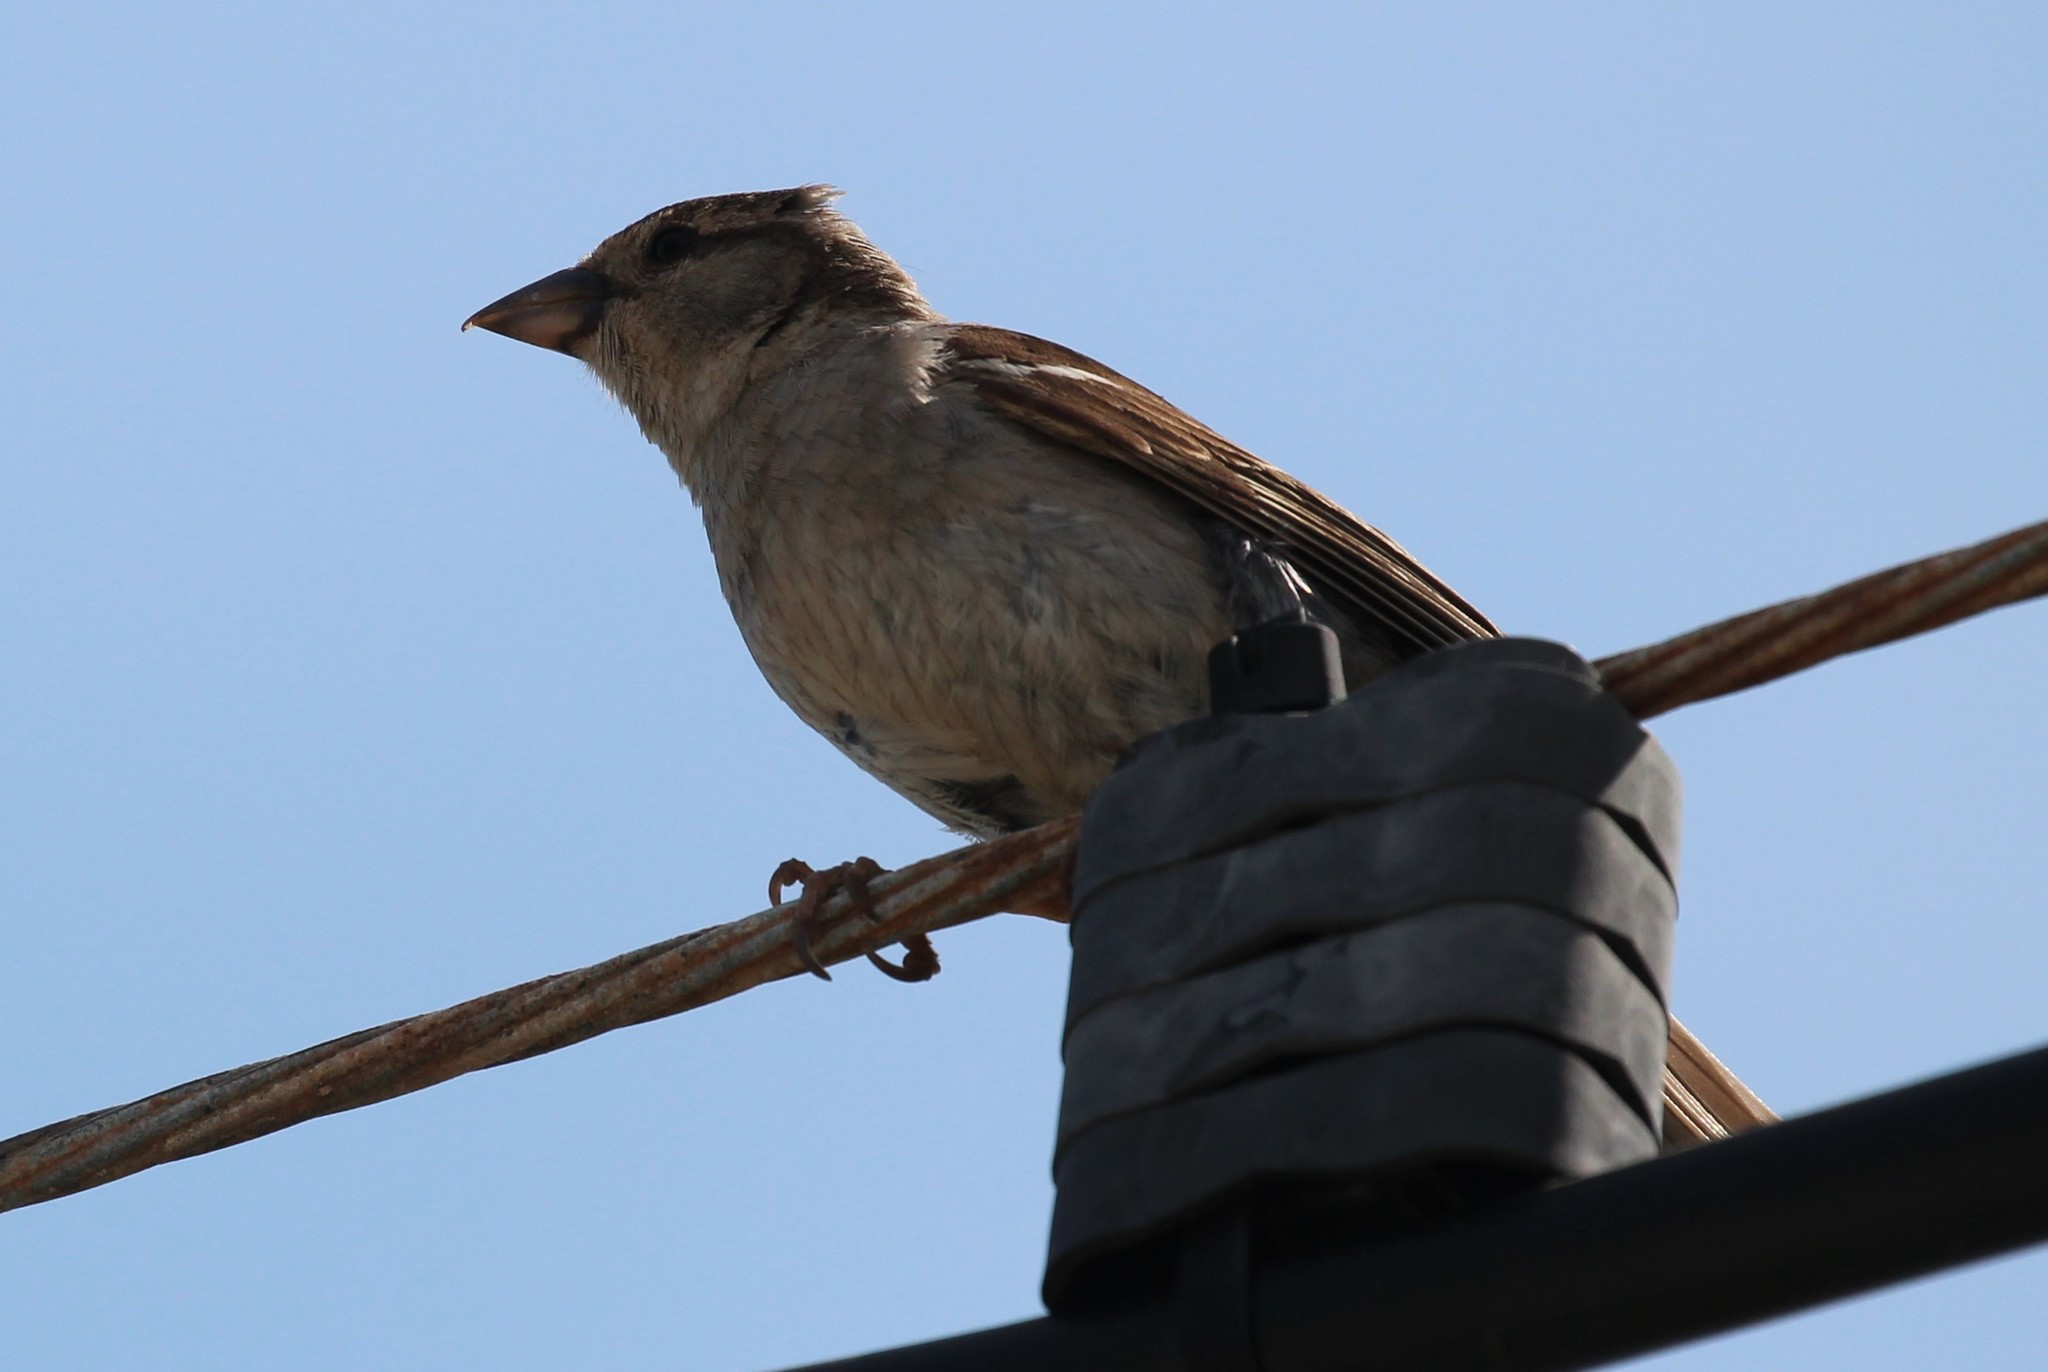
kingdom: Animalia
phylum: Chordata
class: Aves
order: Passeriformes
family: Passeridae
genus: Passer
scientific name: Passer domesticus
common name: House sparrow
